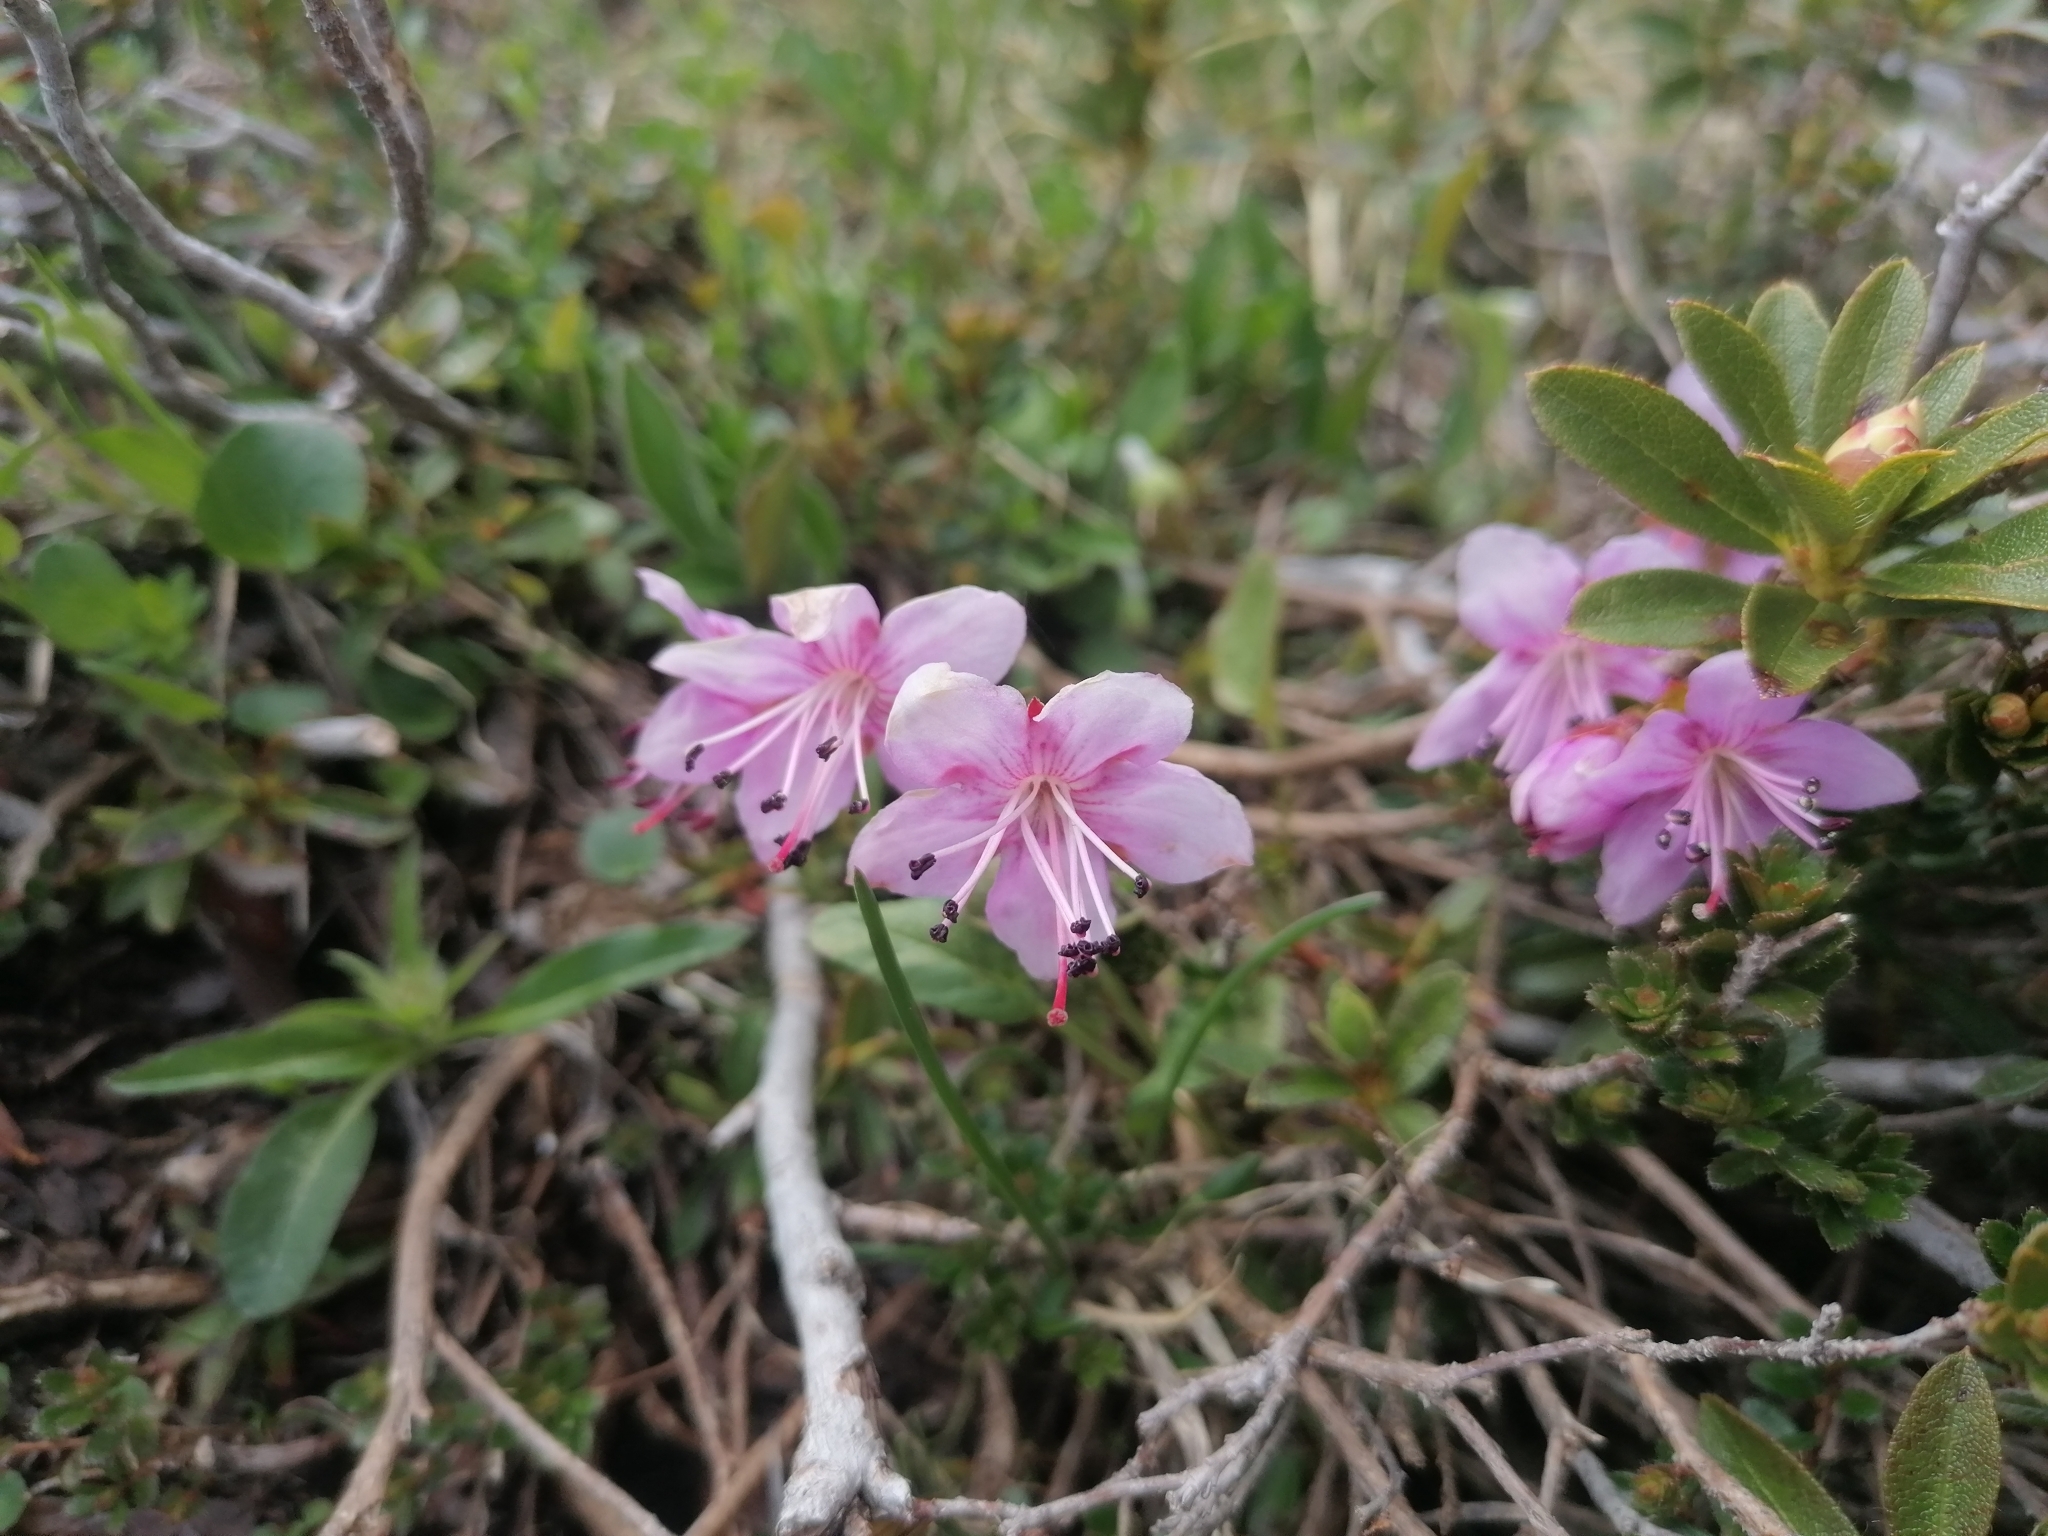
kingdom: Plantae
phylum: Tracheophyta
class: Magnoliopsida
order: Ericales
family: Ericaceae
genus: Rhodothamnus
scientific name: Rhodothamnus chamaecistus
